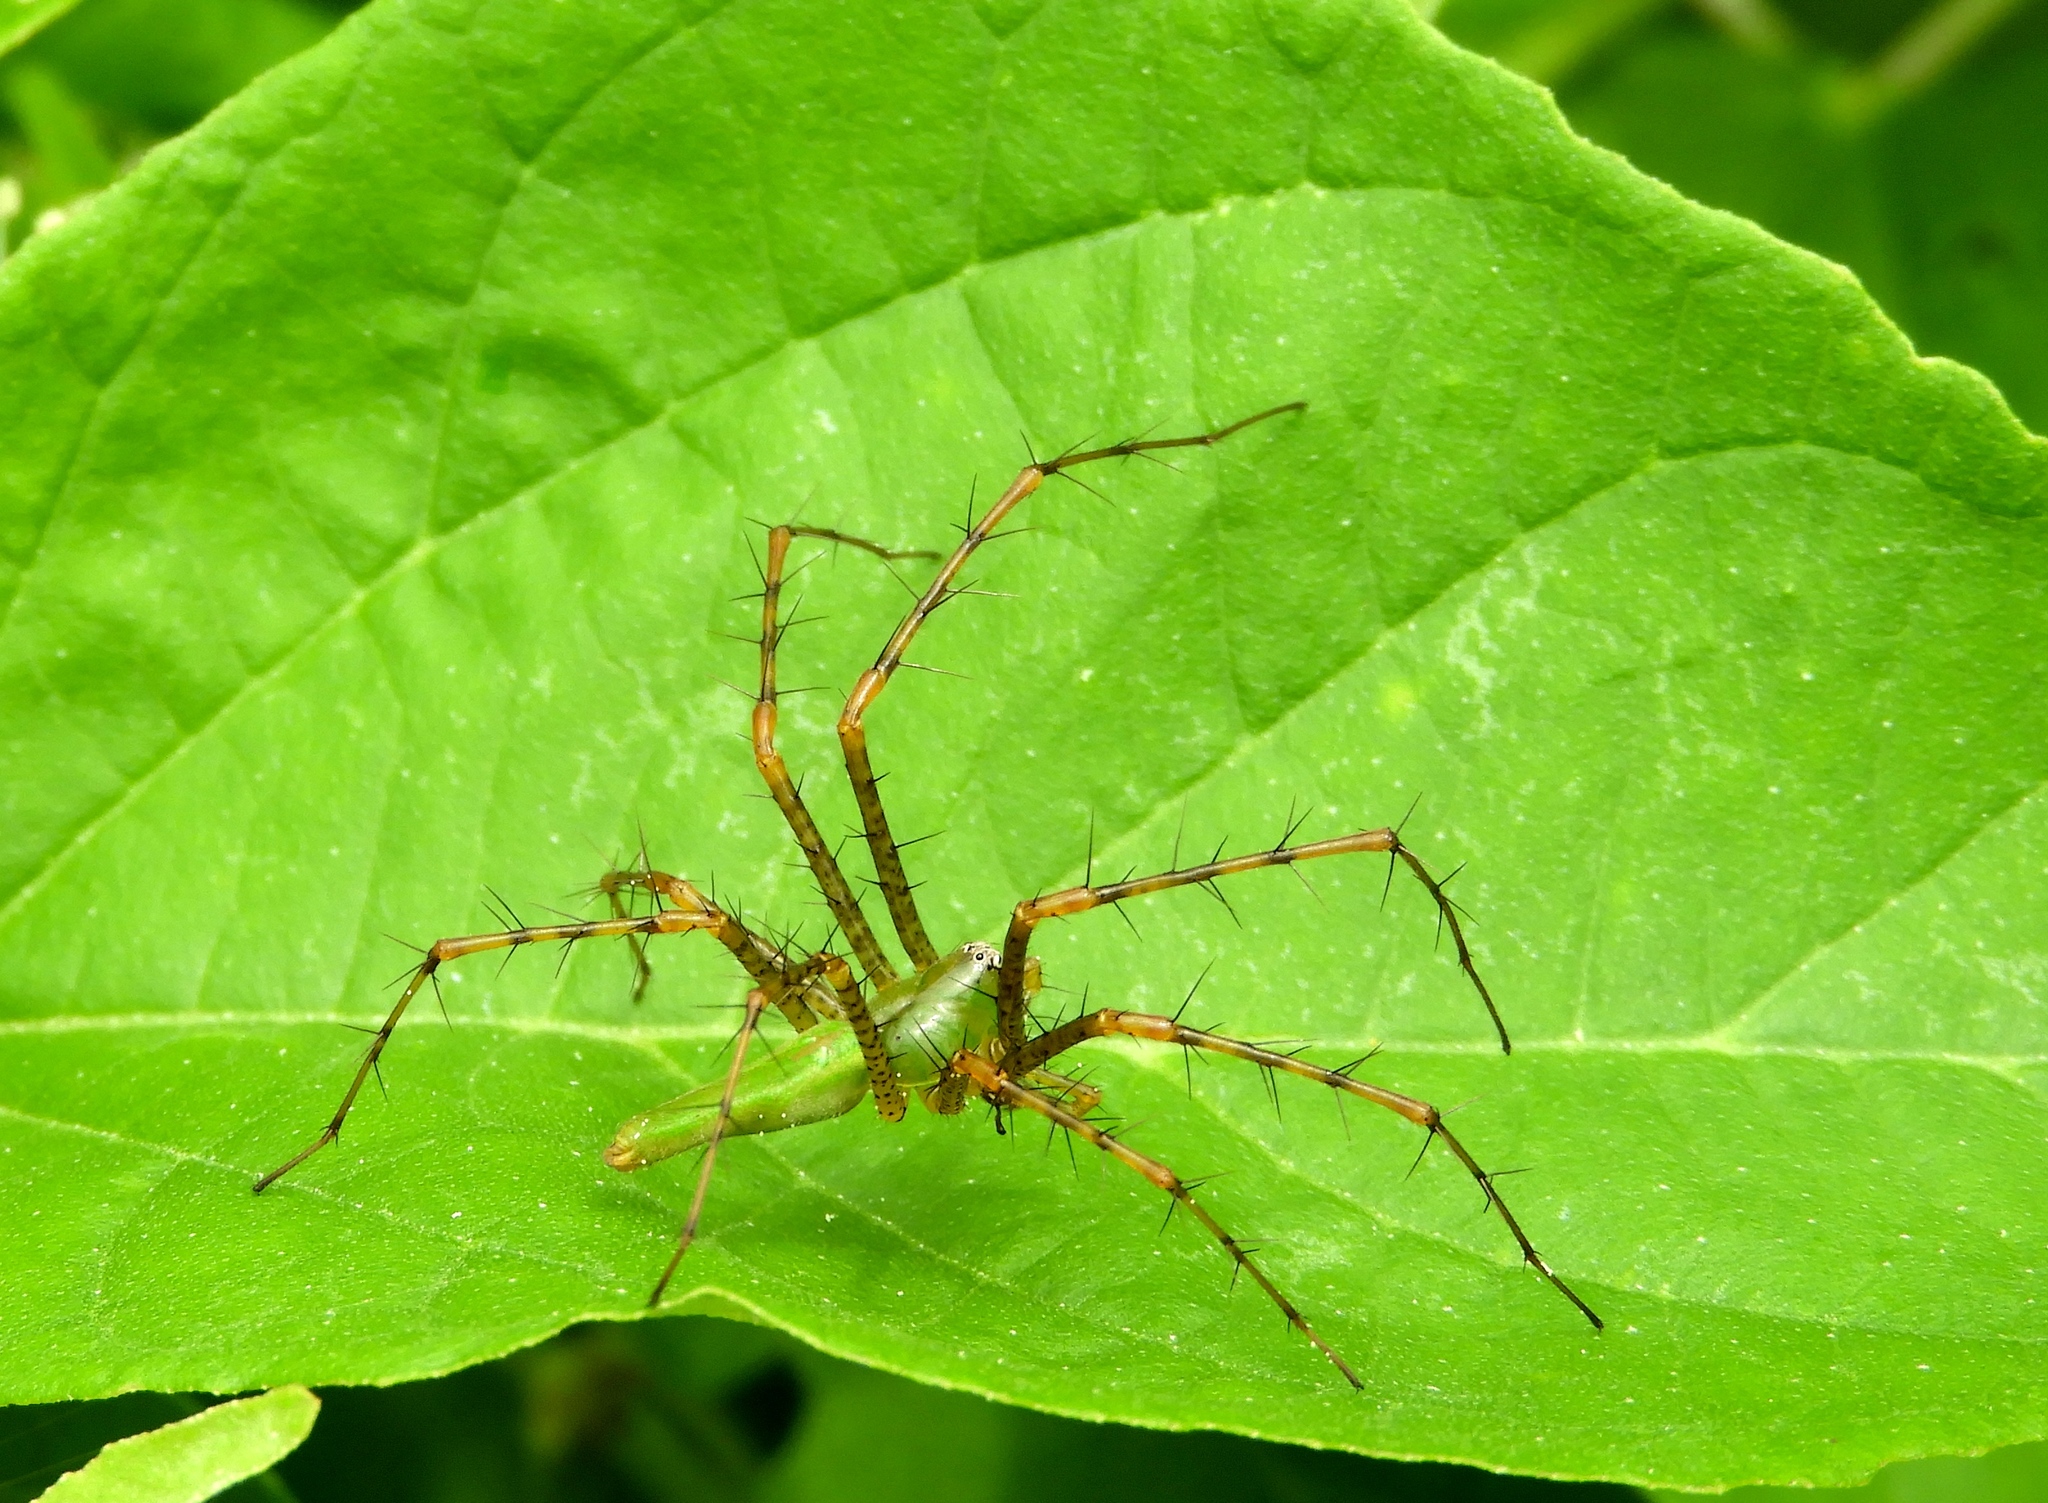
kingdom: Animalia
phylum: Arthropoda
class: Arachnida
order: Araneae
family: Oxyopidae
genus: Peucetia
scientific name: Peucetia
